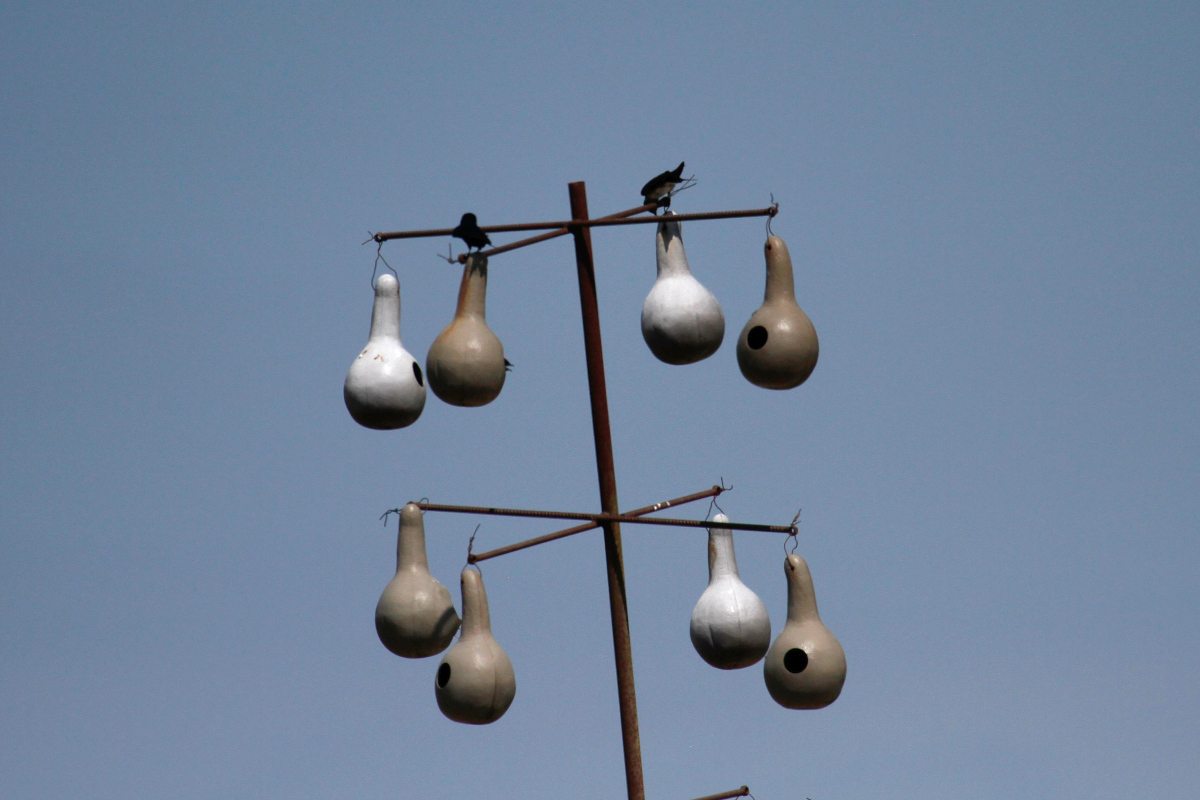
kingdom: Animalia
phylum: Chordata
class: Aves
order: Passeriformes
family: Hirundinidae
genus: Progne
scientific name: Progne subis
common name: Purple martin
